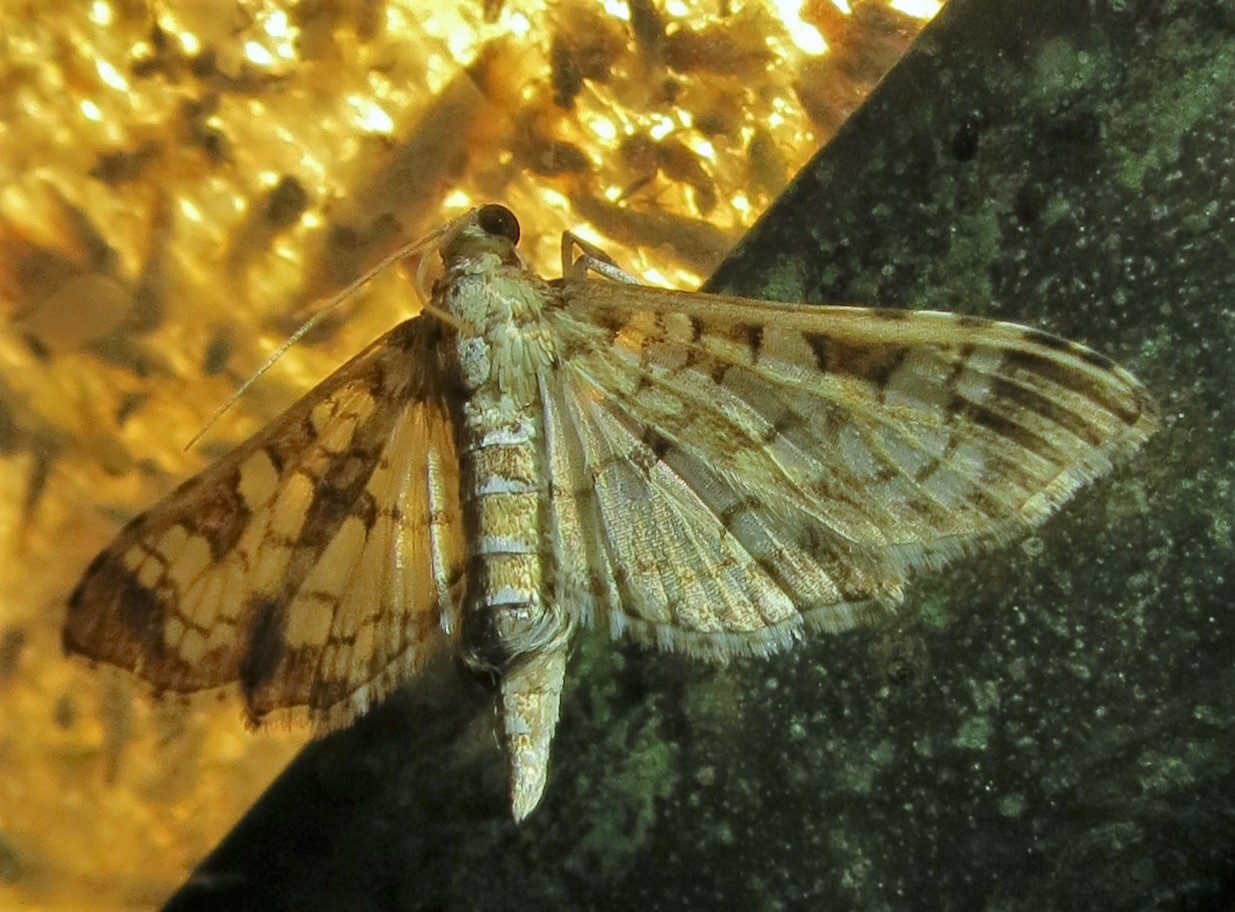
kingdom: Animalia
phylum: Arthropoda
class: Insecta
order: Lepidoptera
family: Crambidae
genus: Samea
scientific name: Samea ecclesialis
